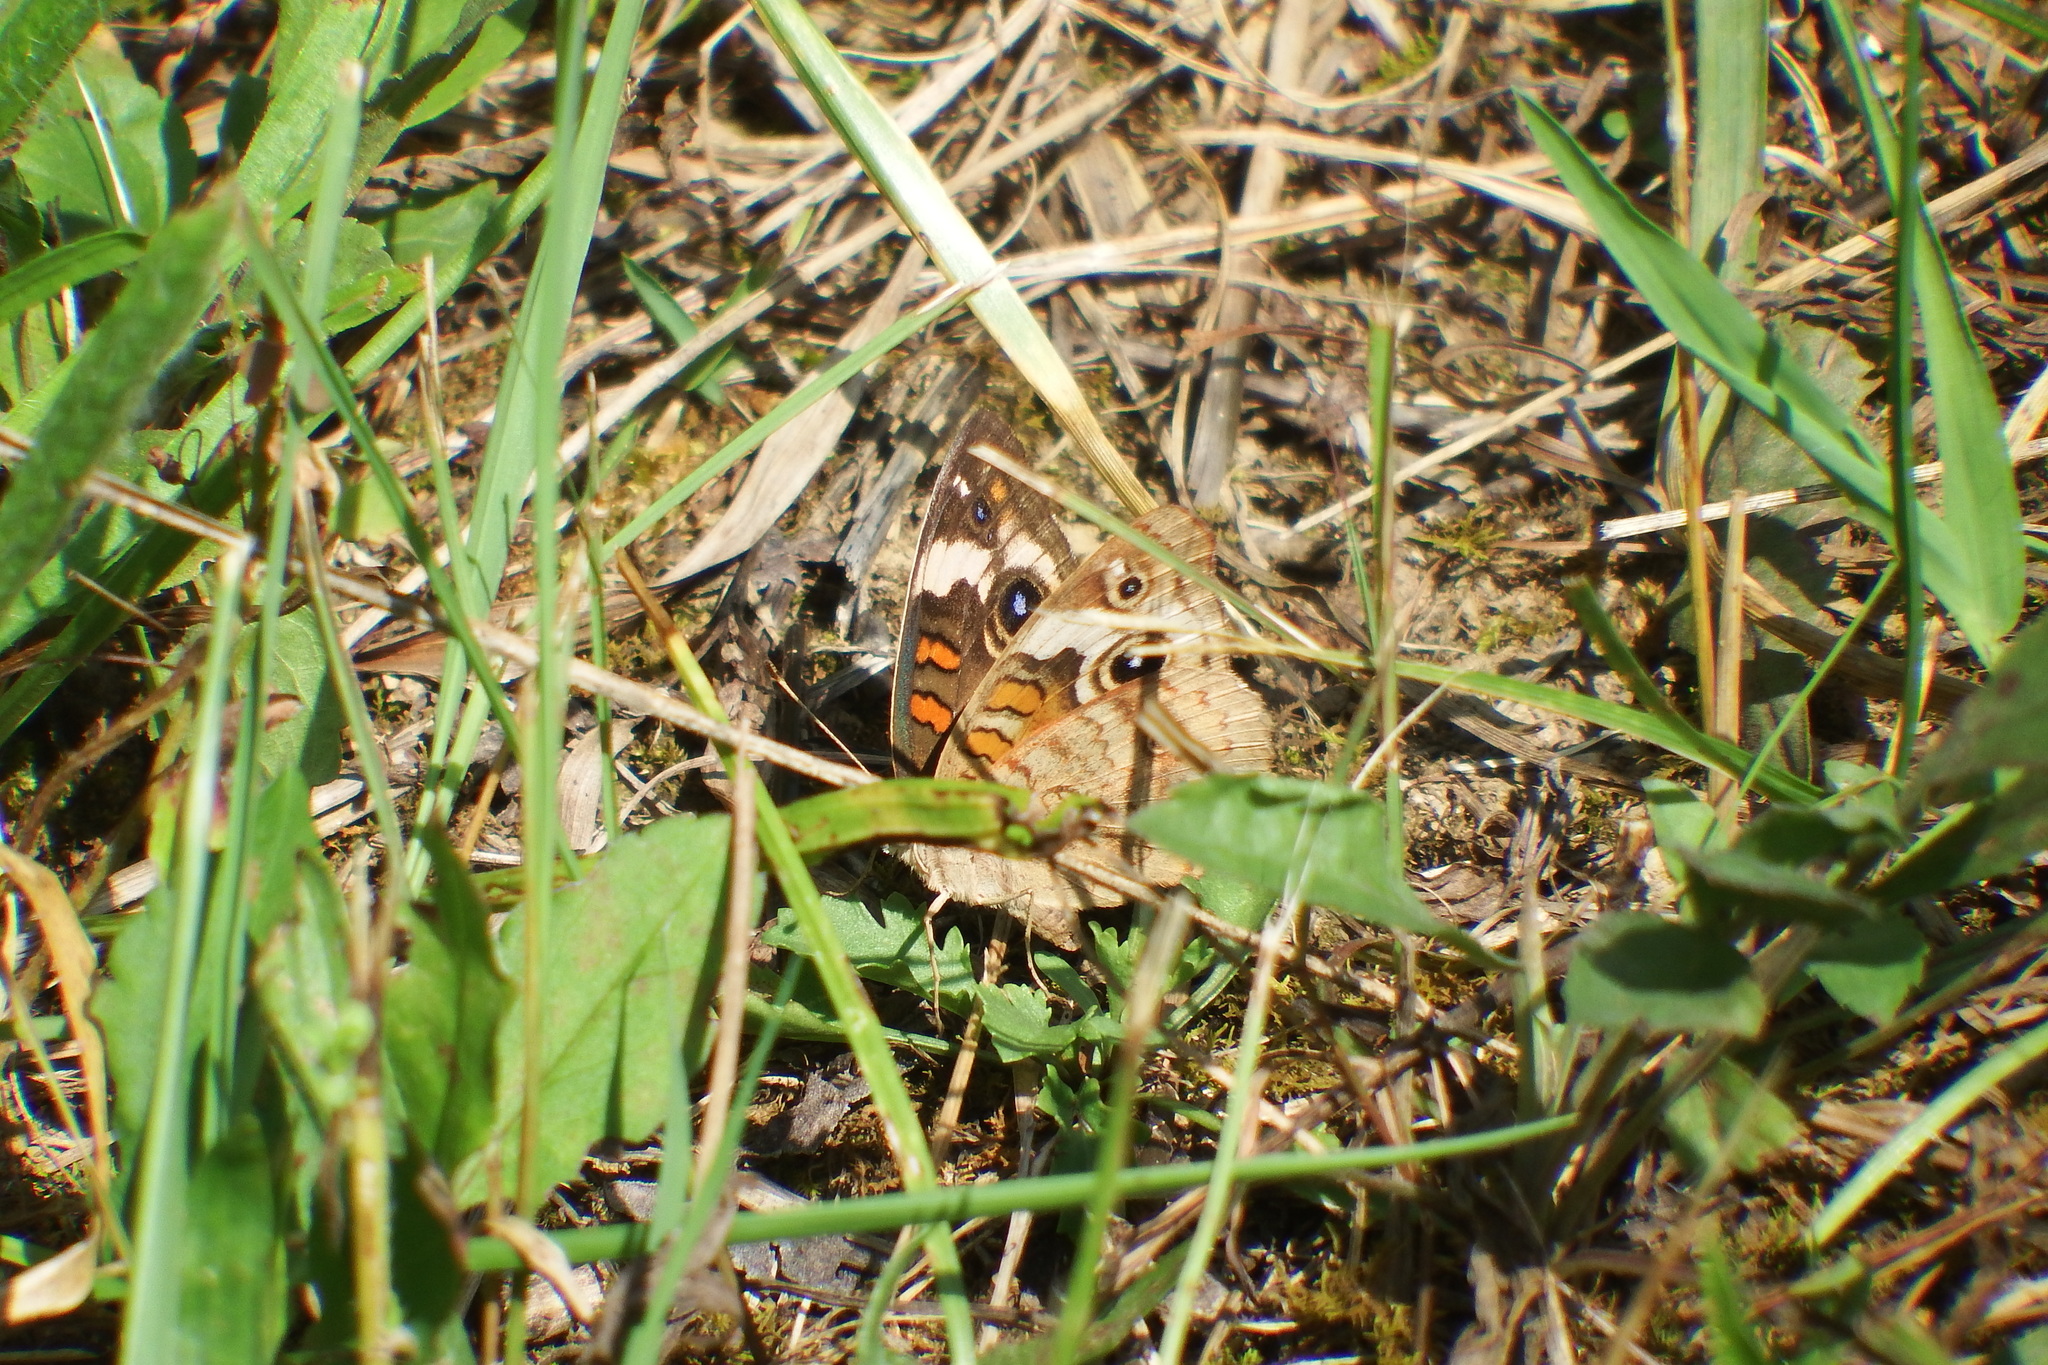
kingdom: Animalia
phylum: Arthropoda
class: Insecta
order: Lepidoptera
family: Nymphalidae
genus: Junonia
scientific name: Junonia coenia
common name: Common buckeye
